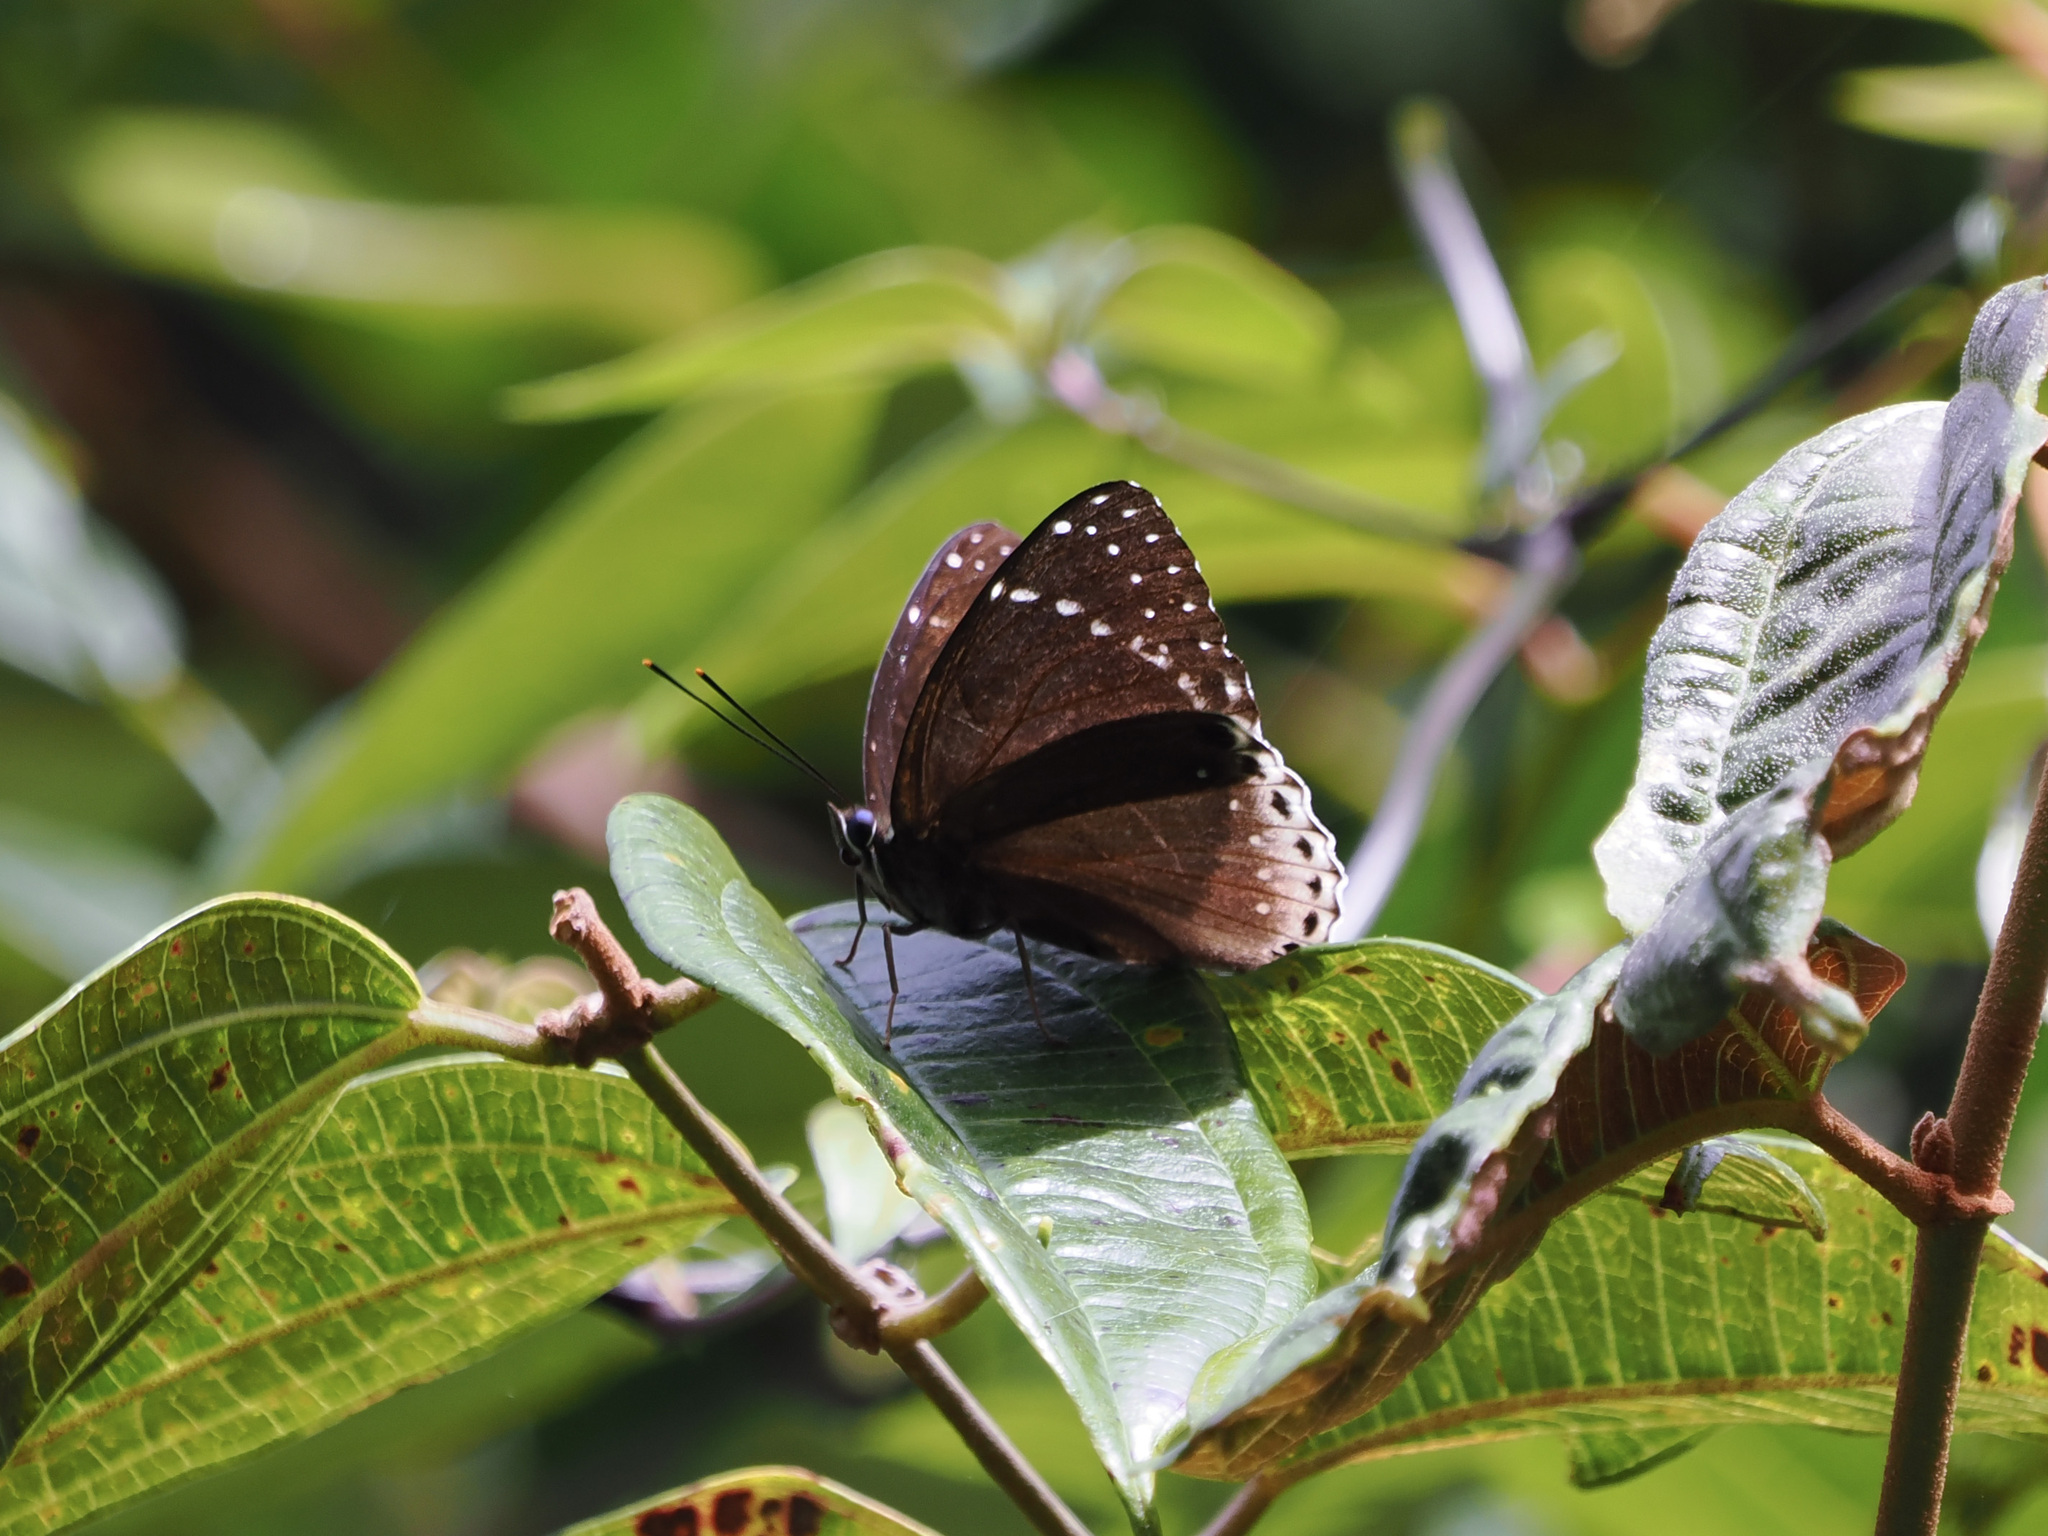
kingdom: Animalia
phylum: Arthropoda
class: Insecta
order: Lepidoptera
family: Nymphalidae
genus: Stibochiona
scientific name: Stibochiona coresia
